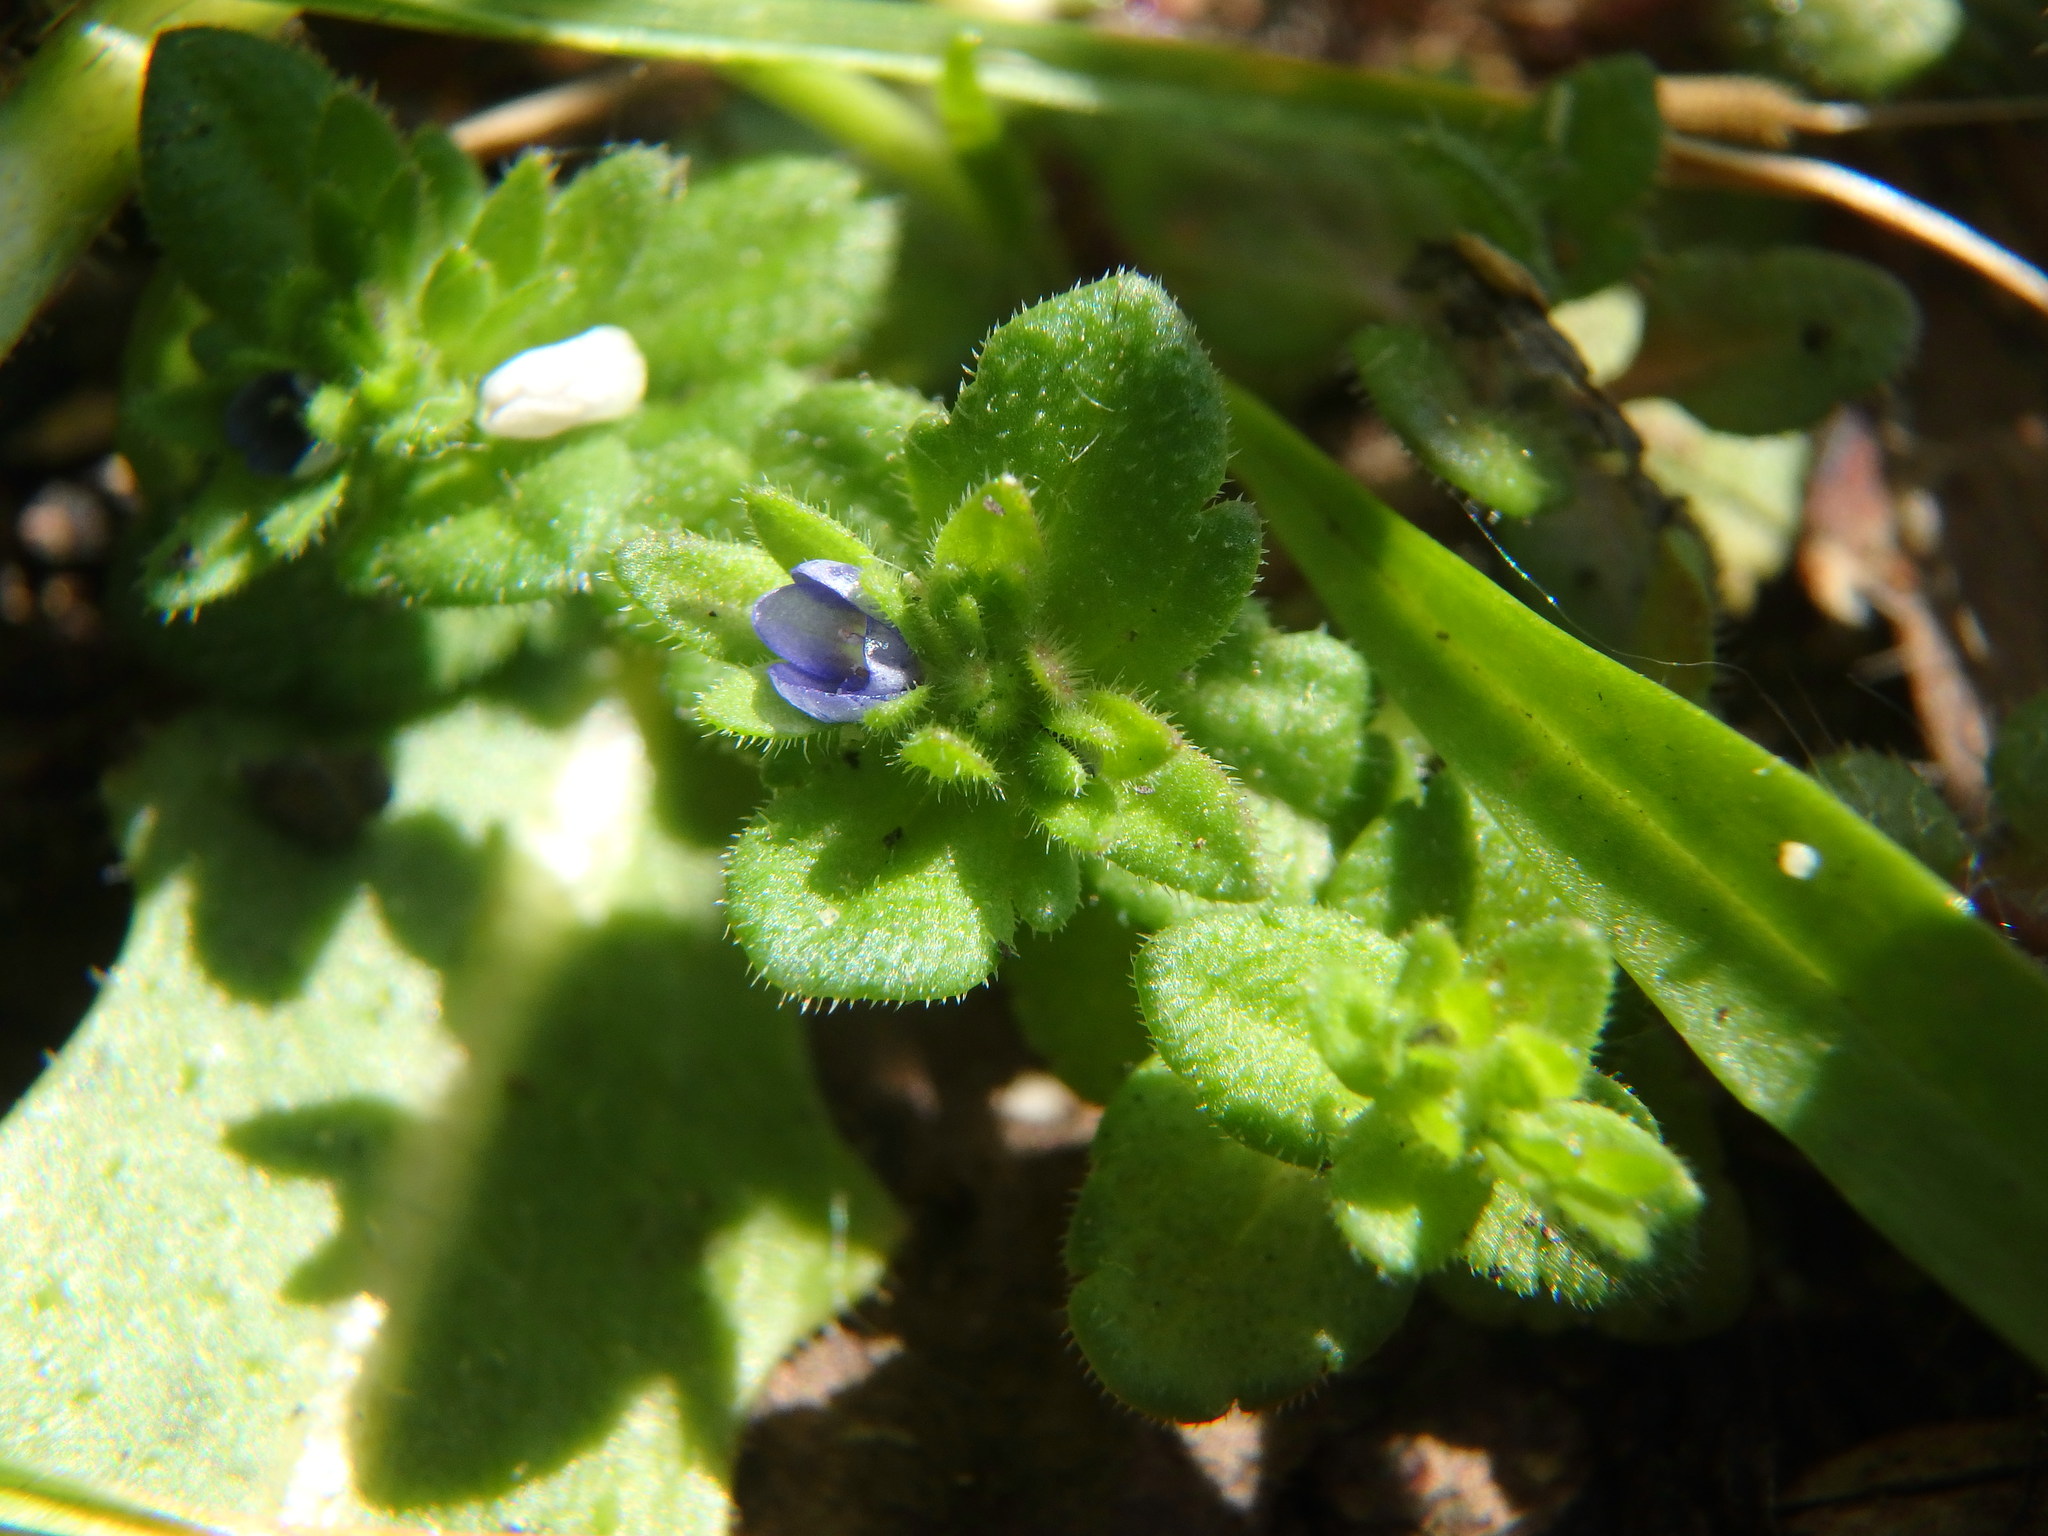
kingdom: Plantae
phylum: Tracheophyta
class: Magnoliopsida
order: Lamiales
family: Plantaginaceae
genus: Veronica
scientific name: Veronica arvensis
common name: Corn speedwell
